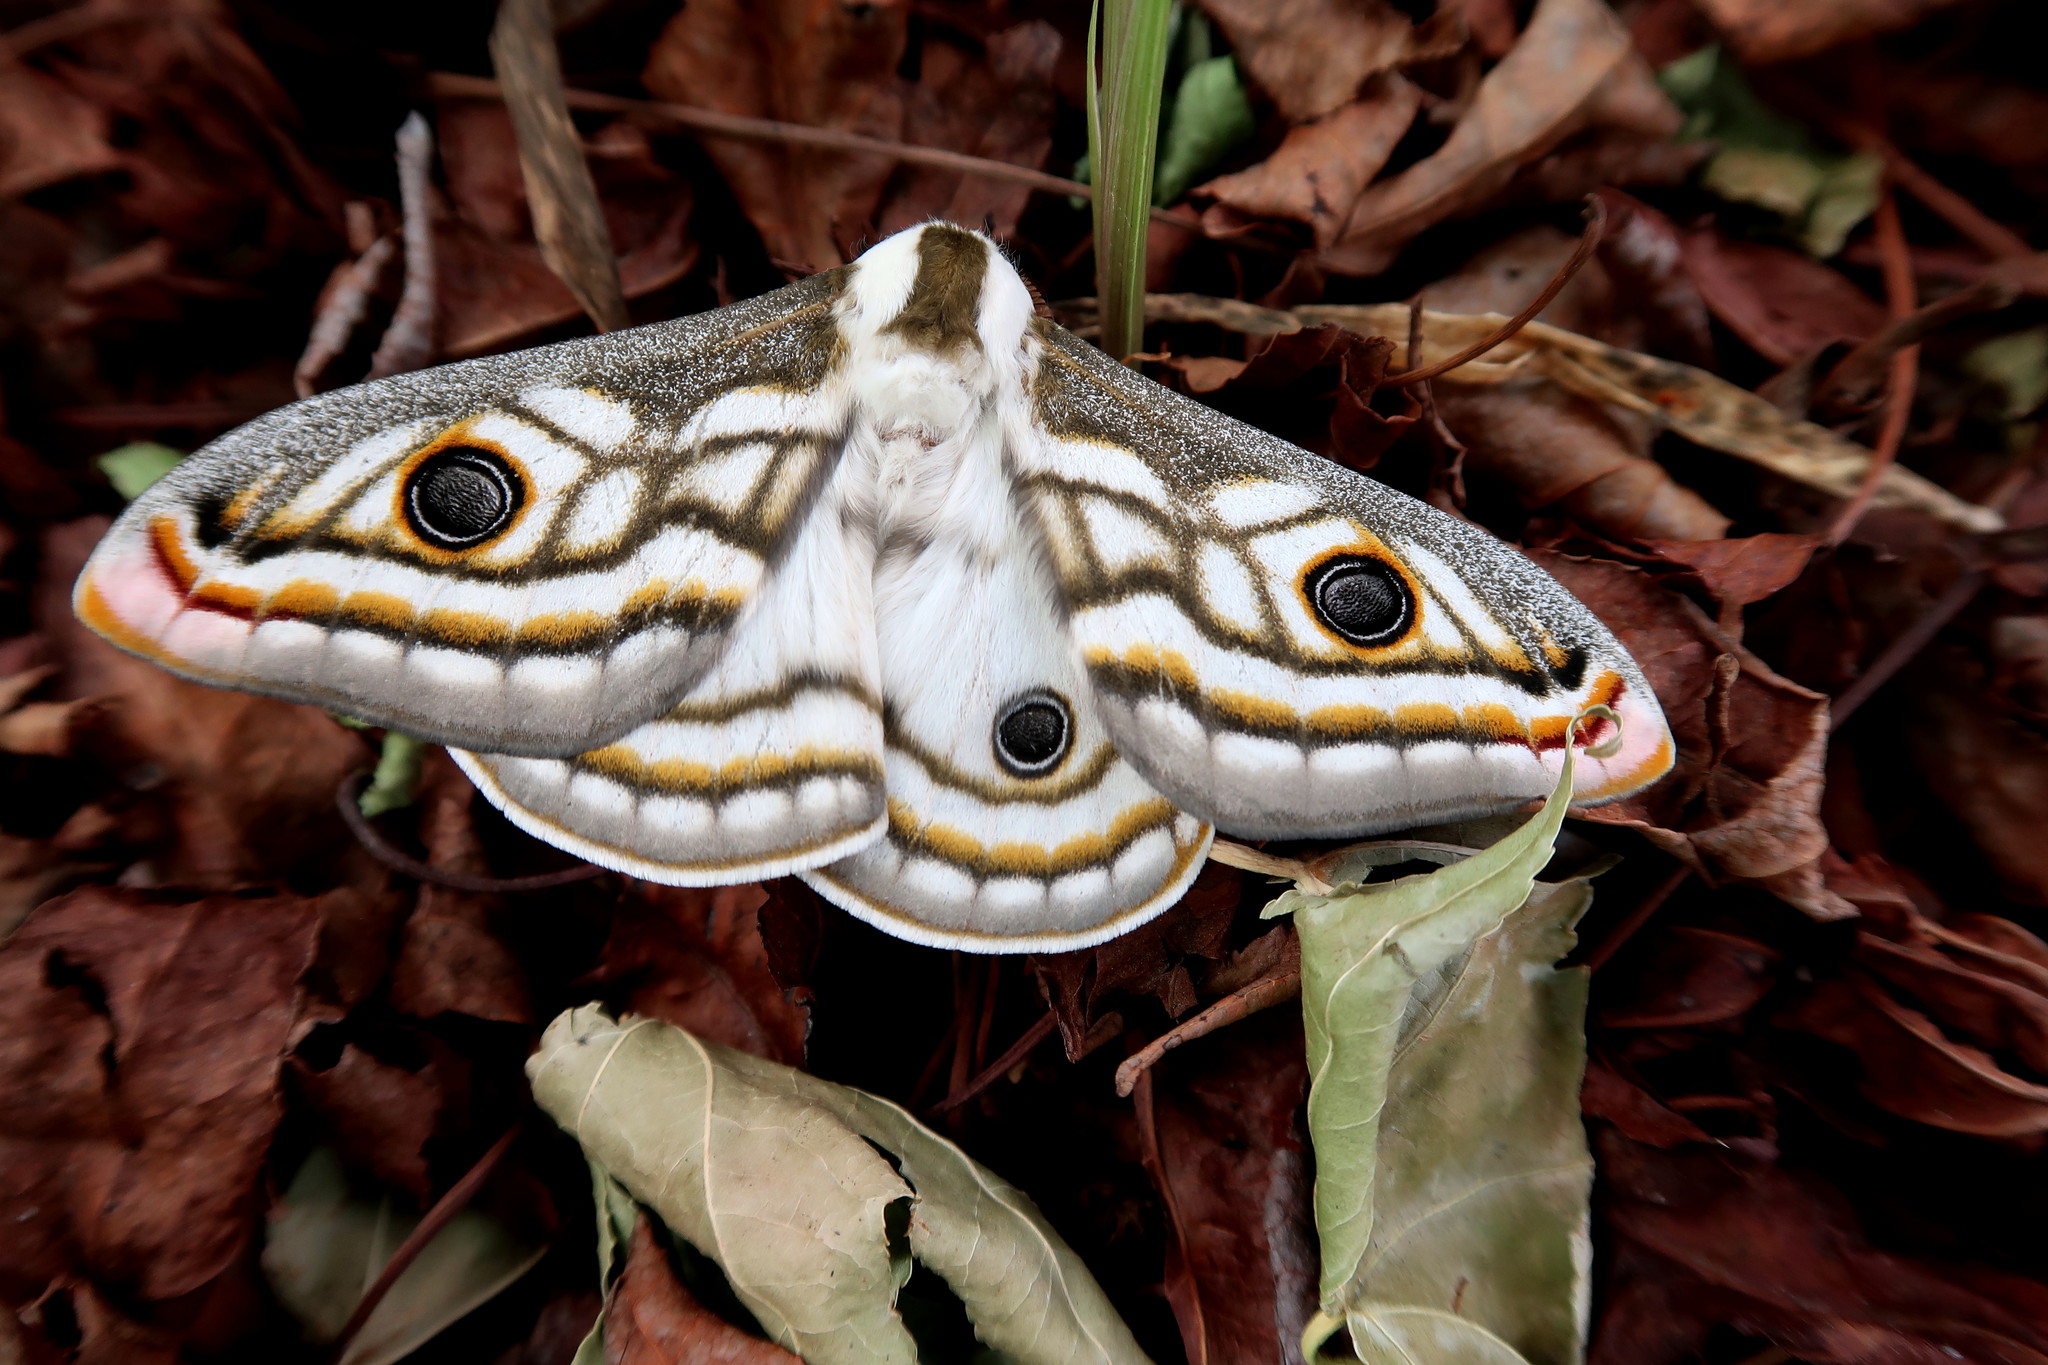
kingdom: Animalia
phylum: Arthropoda
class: Insecta
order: Lepidoptera
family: Saturniidae
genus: Heniocha
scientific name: Heniocha apollonia
